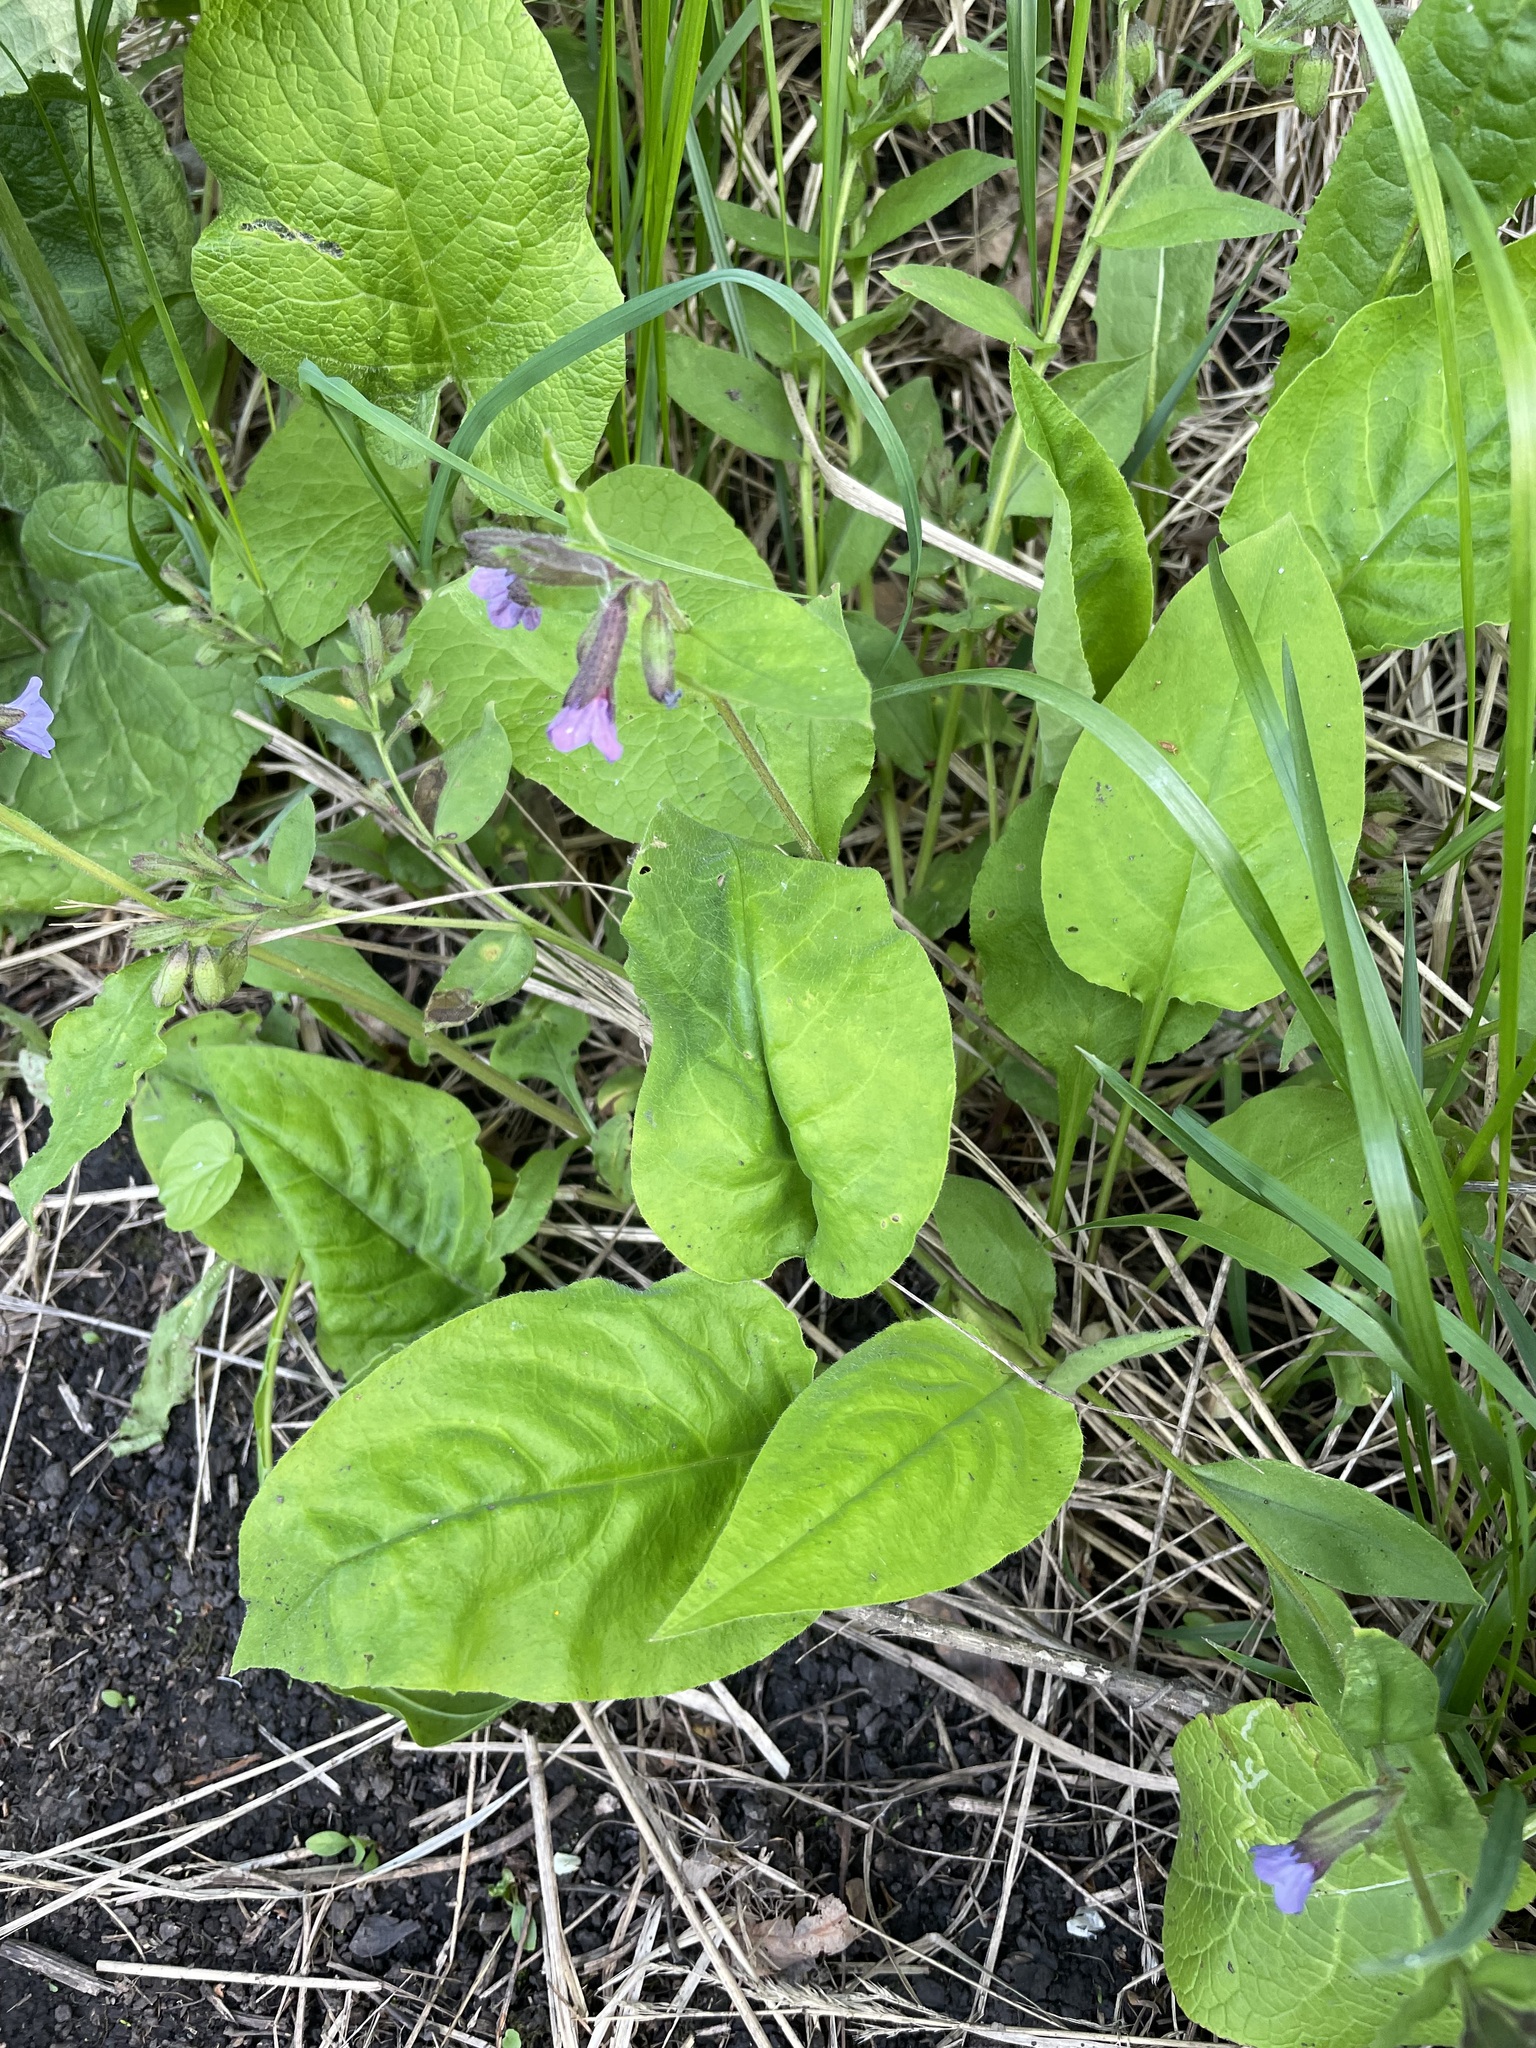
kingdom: Plantae
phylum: Tracheophyta
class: Magnoliopsida
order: Boraginales
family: Boraginaceae
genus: Pulmonaria
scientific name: Pulmonaria obscura
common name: Suffolk lungwort
